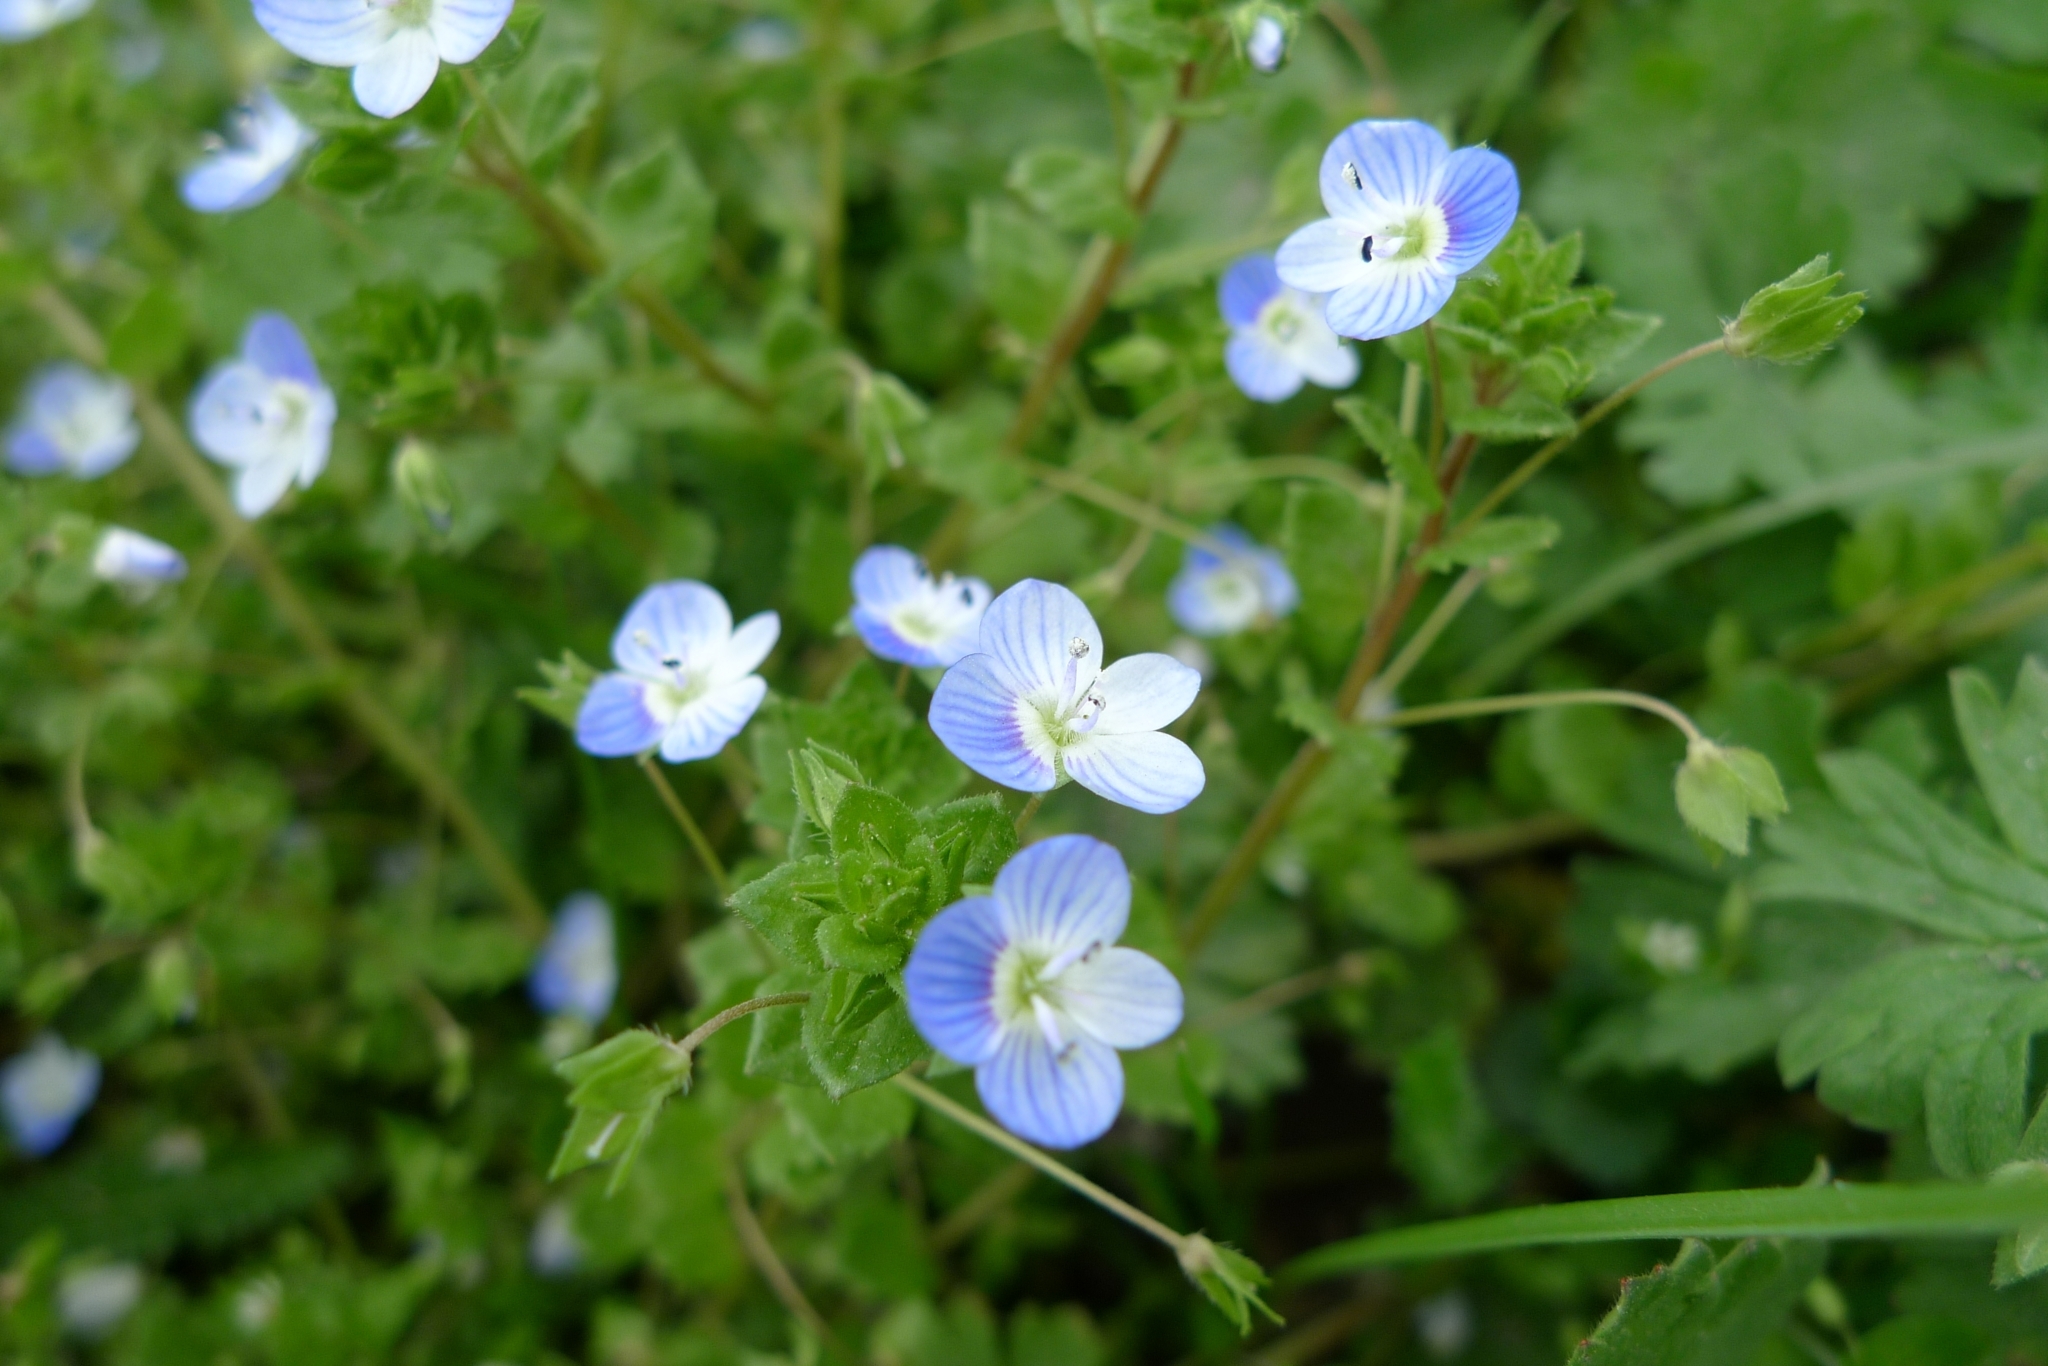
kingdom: Plantae
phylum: Tracheophyta
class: Magnoliopsida
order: Lamiales
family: Plantaginaceae
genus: Veronica
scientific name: Veronica persica
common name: Common field-speedwell
